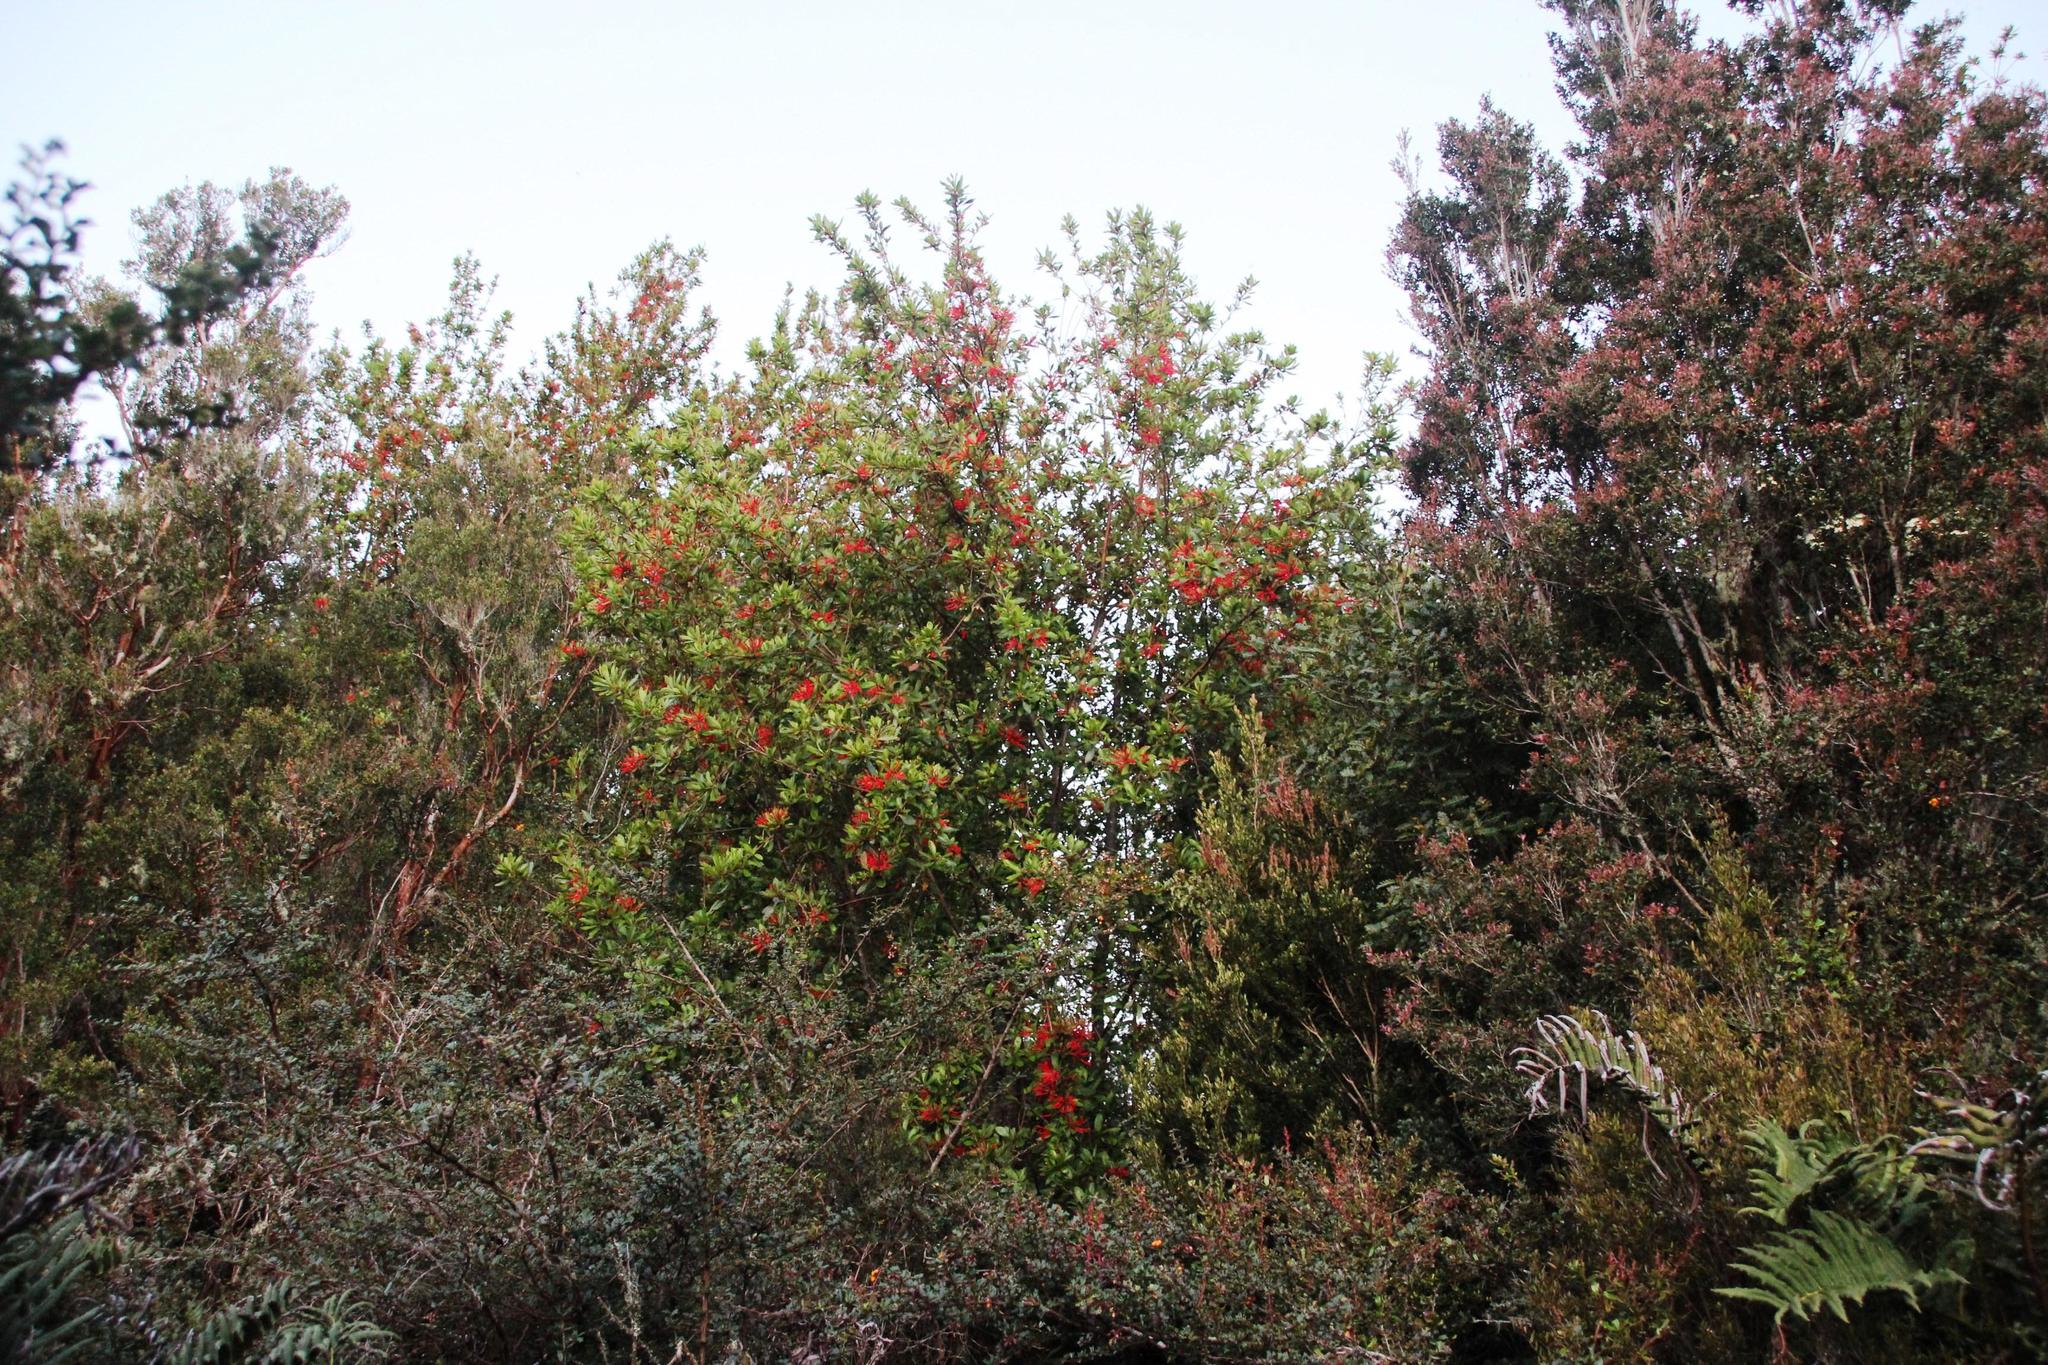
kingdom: Plantae
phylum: Tracheophyta
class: Magnoliopsida
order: Proteales
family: Proteaceae
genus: Embothrium
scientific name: Embothrium coccineum
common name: Chilean firebush
